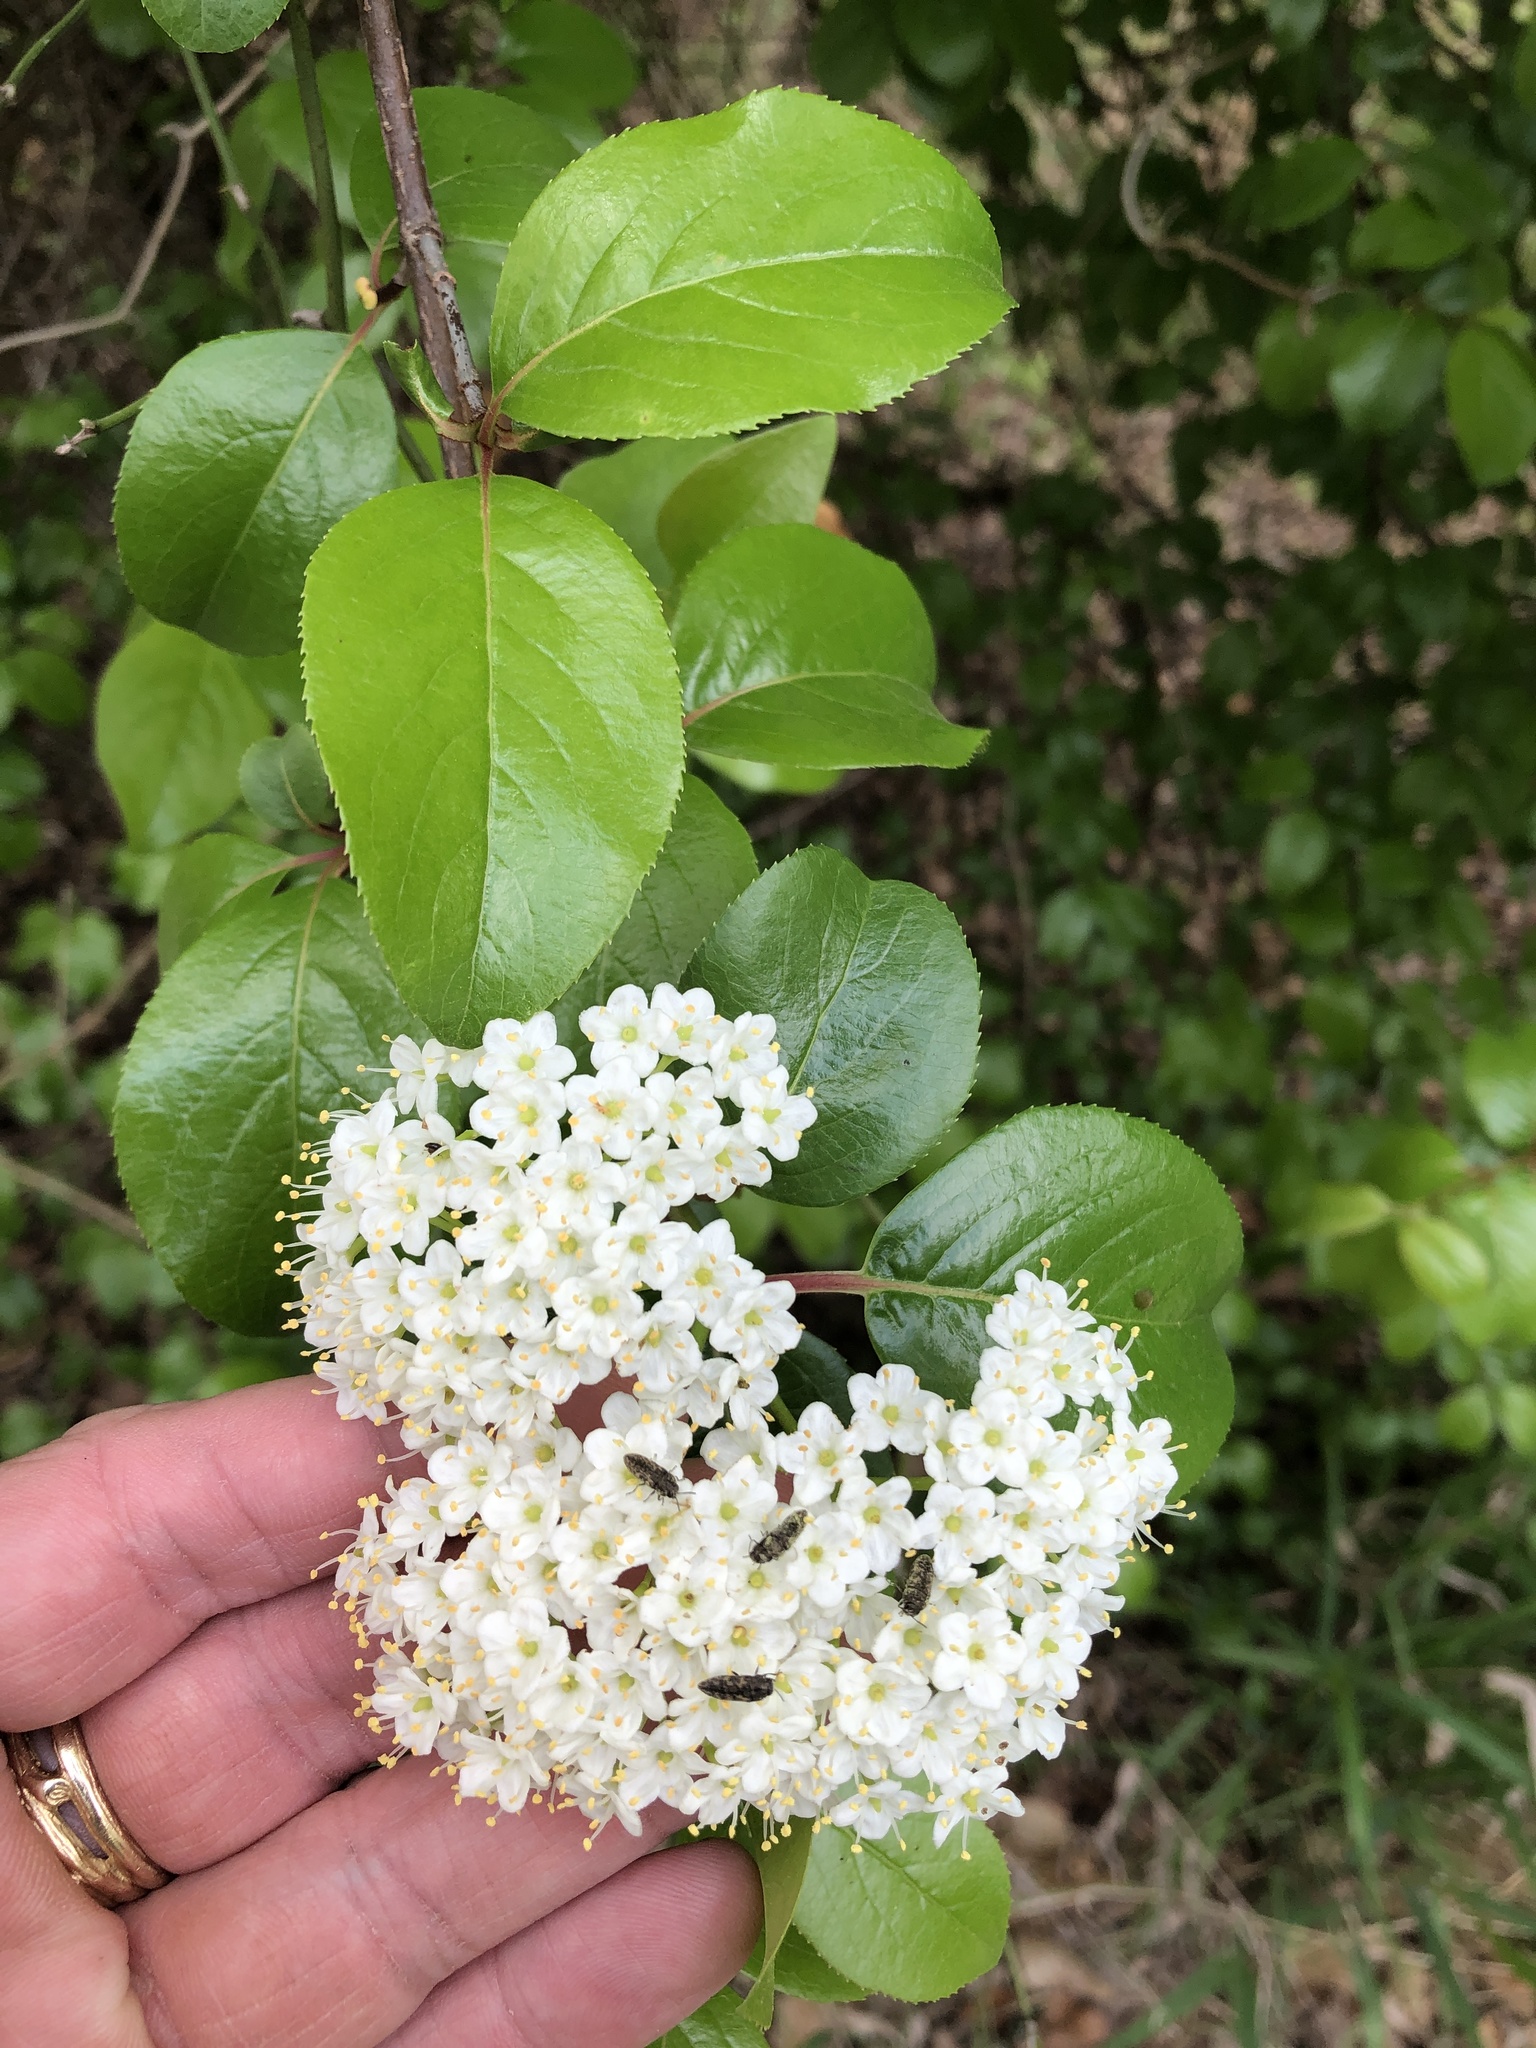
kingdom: Plantae
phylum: Tracheophyta
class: Magnoliopsida
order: Dipsacales
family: Viburnaceae
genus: Viburnum
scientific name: Viburnum rufidulum
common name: Blue haw
